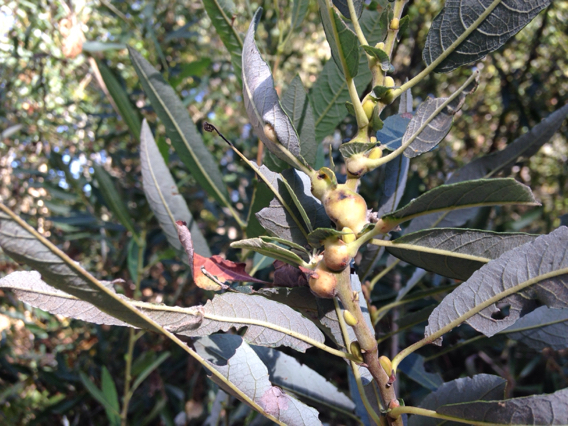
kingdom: Animalia
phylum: Arthropoda
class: Insecta
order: Diptera
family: Cecidomyiidae
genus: Rabdophaga
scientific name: Rabdophaga salicisbatatas
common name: Potato gall midge
